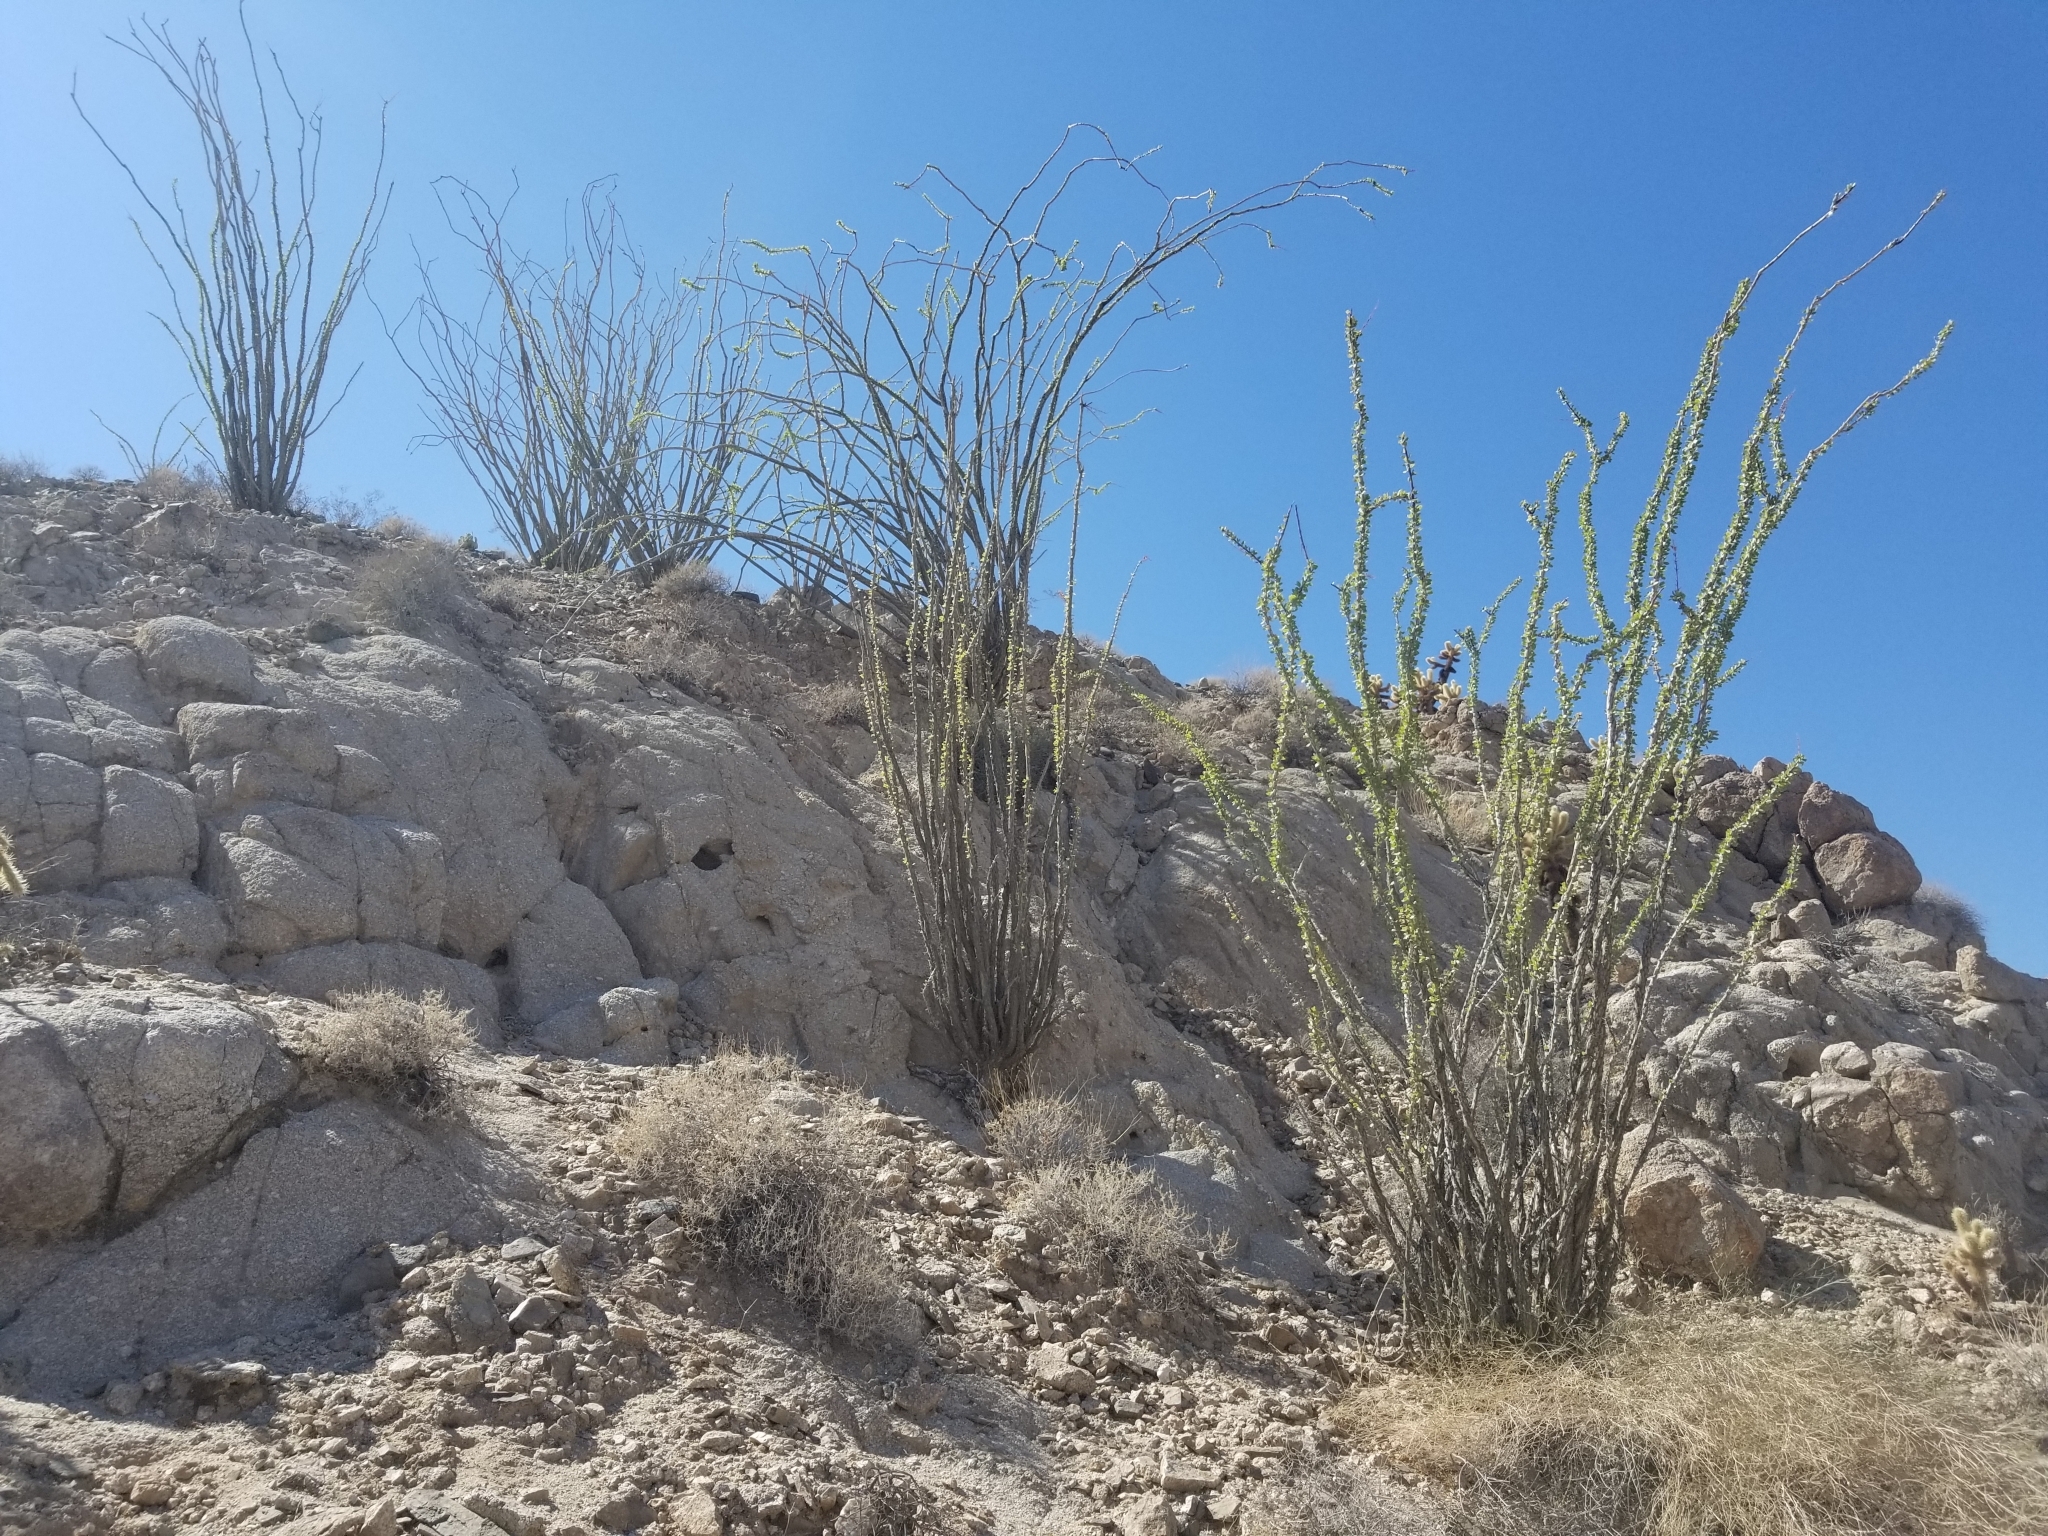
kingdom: Plantae
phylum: Tracheophyta
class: Magnoliopsida
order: Ericales
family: Fouquieriaceae
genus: Fouquieria
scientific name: Fouquieria splendens
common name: Vine-cactus
